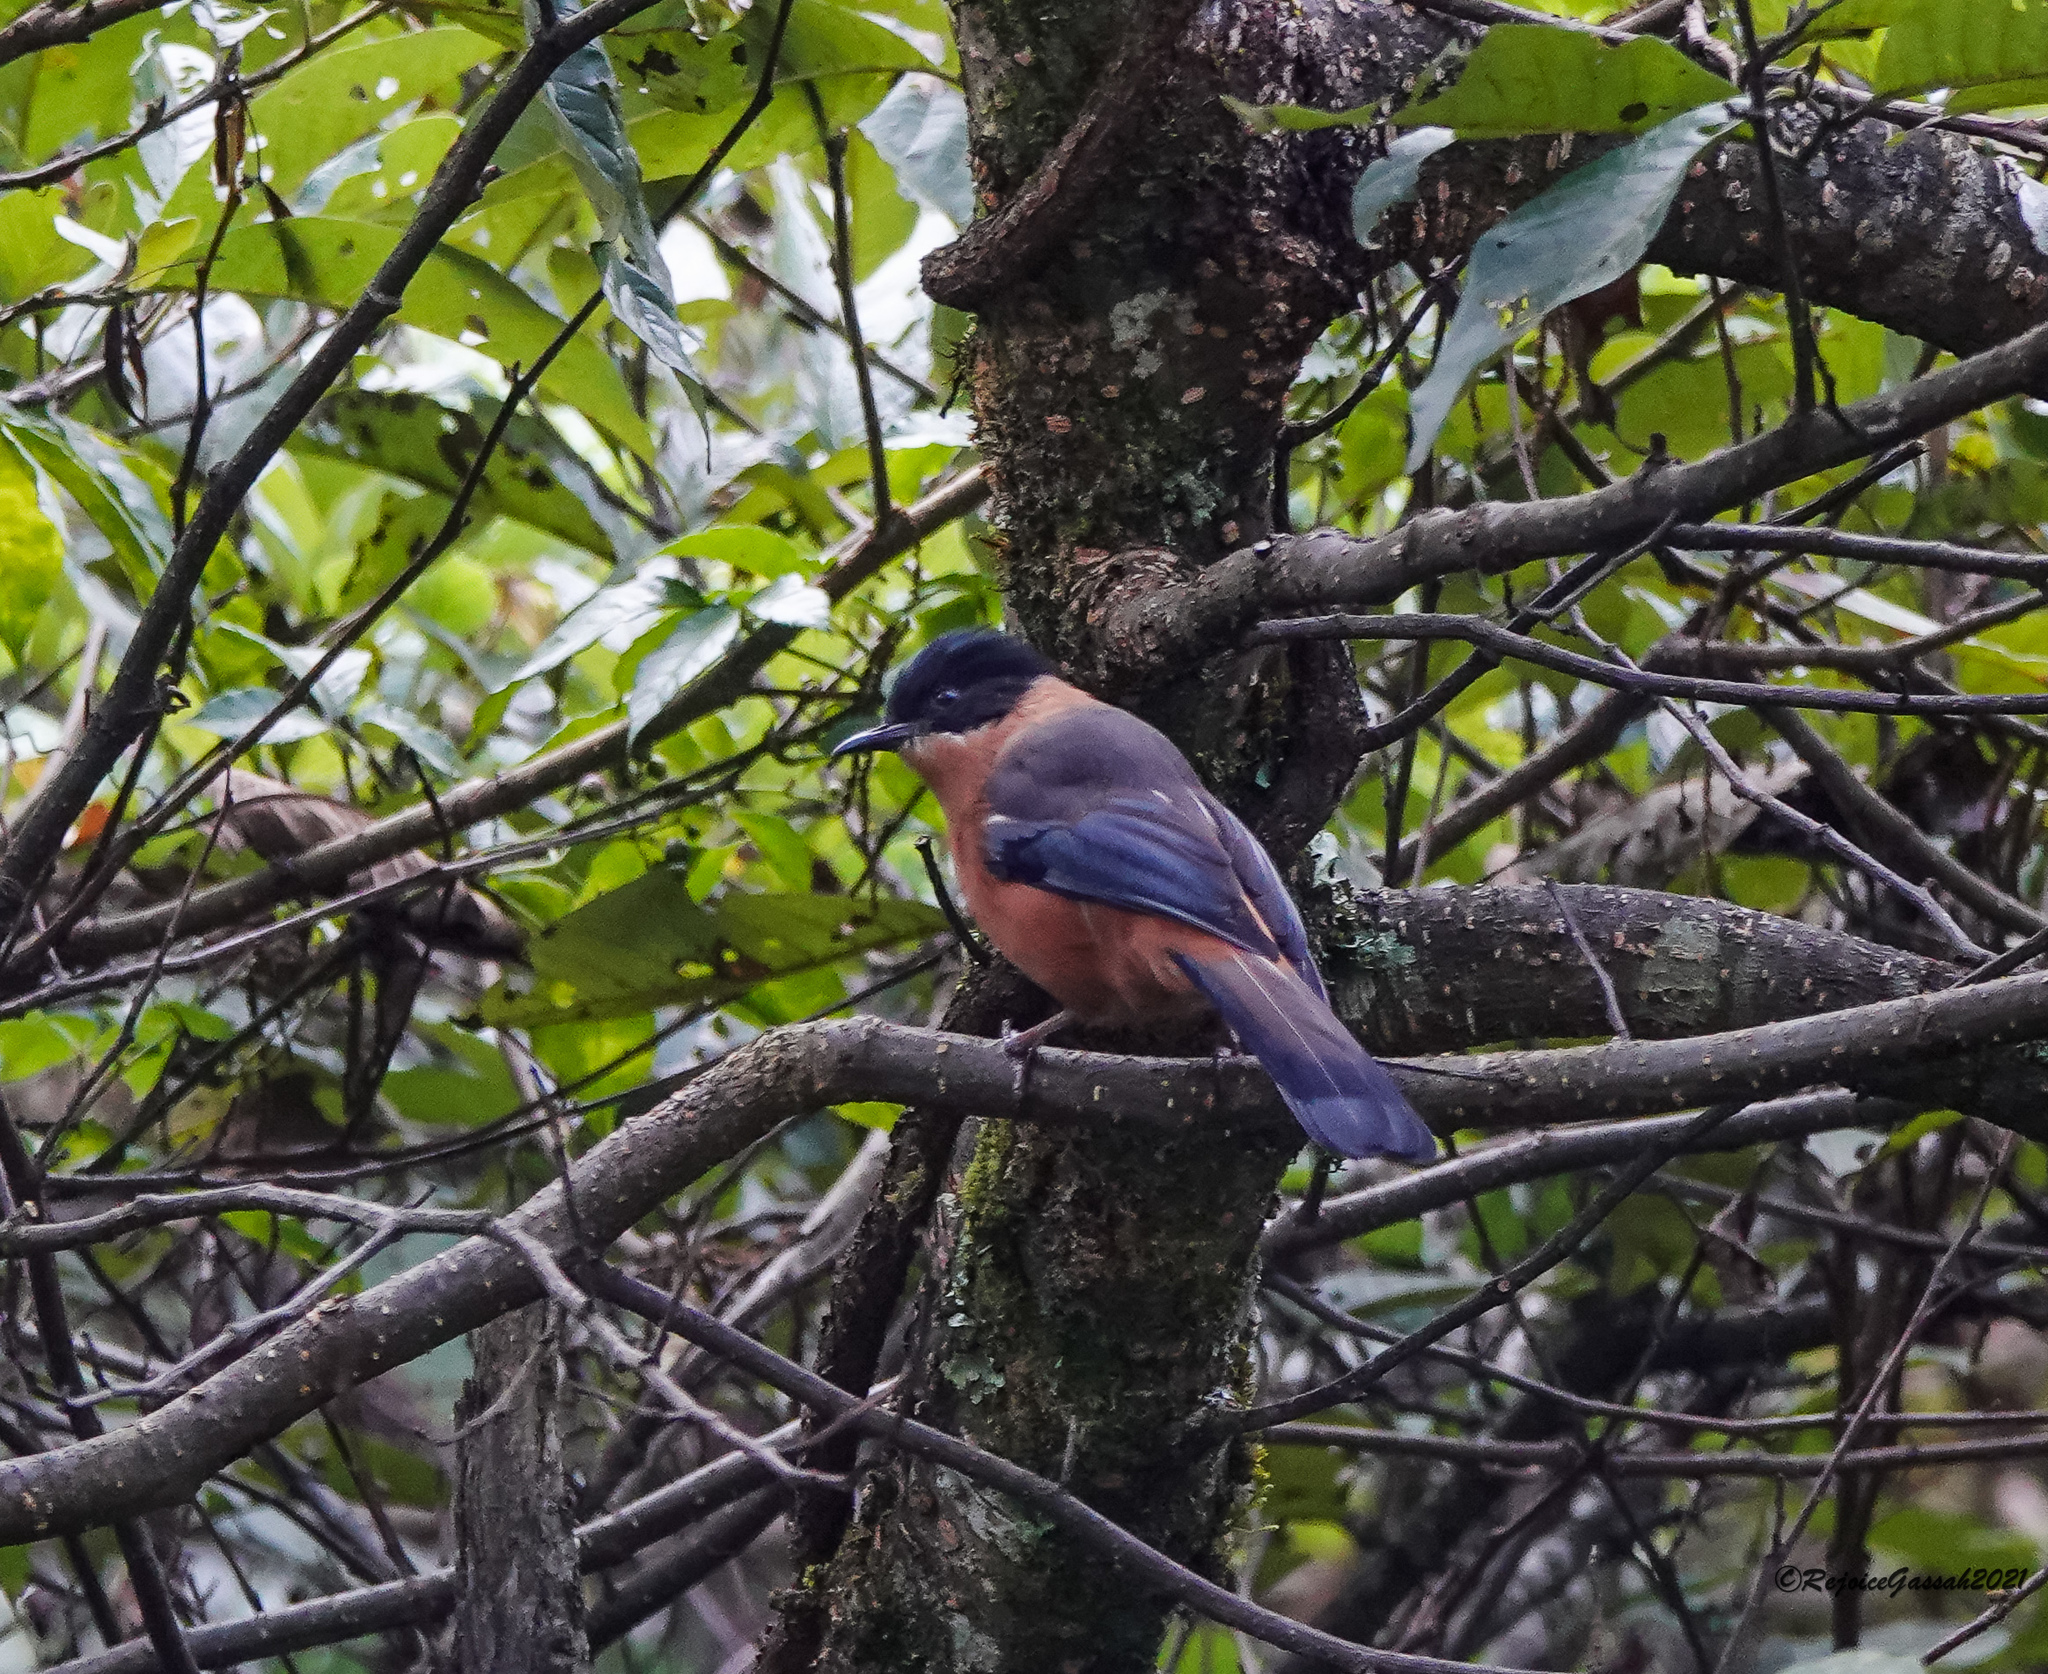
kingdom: Animalia
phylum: Chordata
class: Aves
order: Passeriformes
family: Leiothrichidae
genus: Heterophasia
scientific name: Heterophasia capistrata
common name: Rufous sibia
